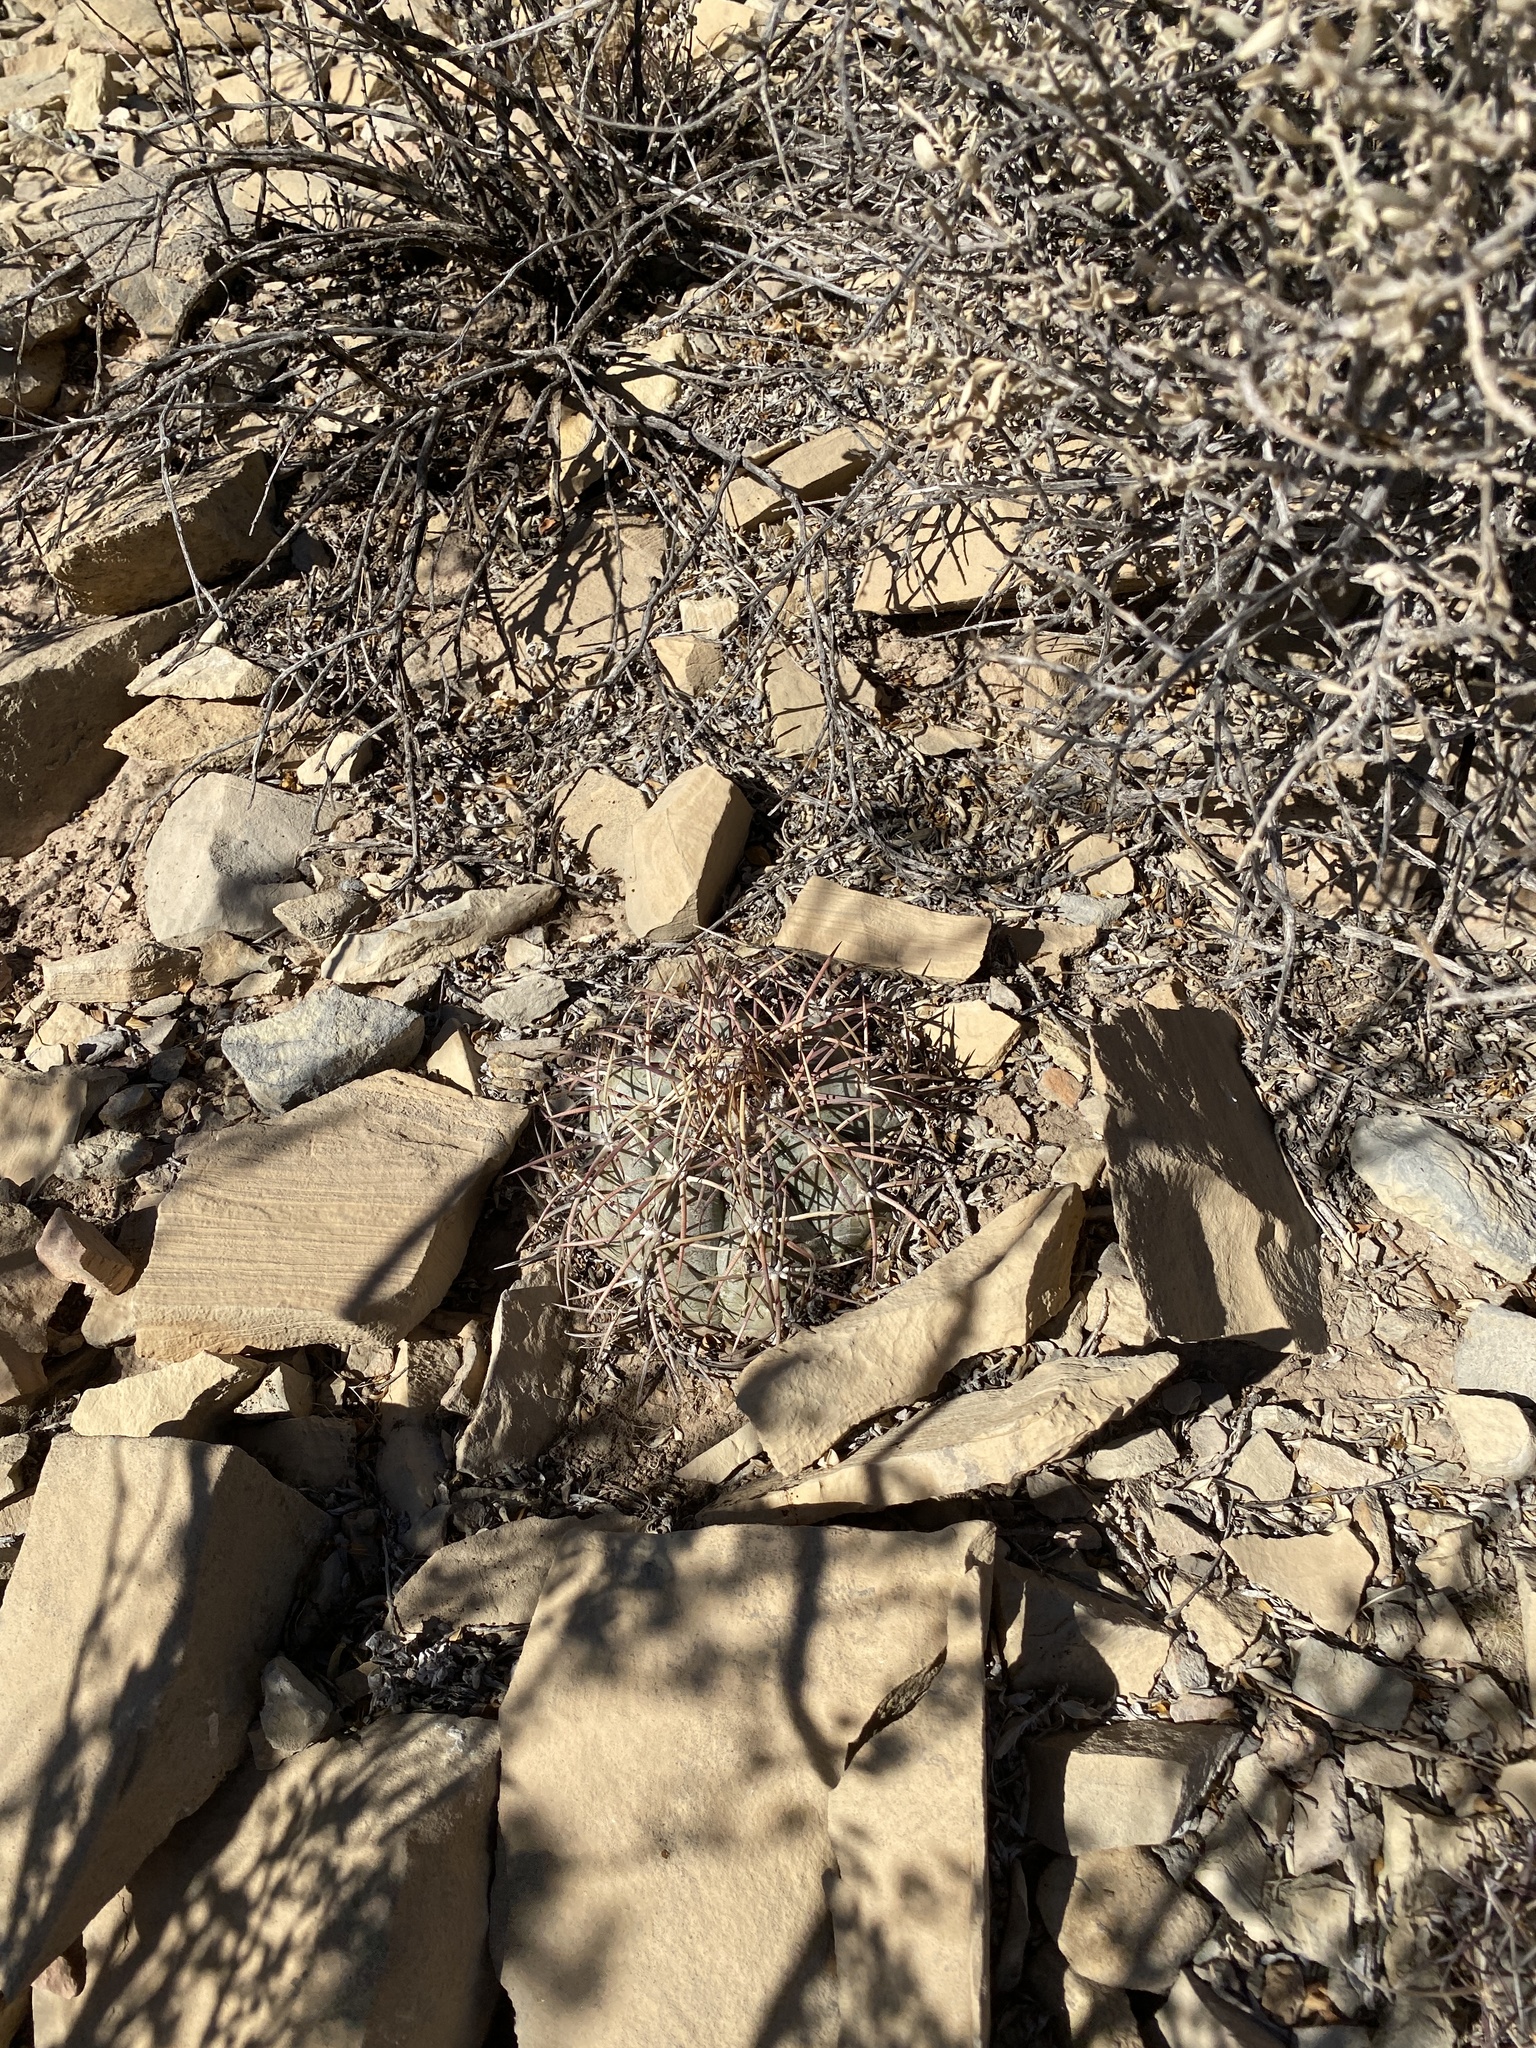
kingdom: Plantae
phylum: Tracheophyta
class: Magnoliopsida
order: Caryophyllales
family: Cactaceae
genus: Echinocactus
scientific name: Echinocactus horizonthalonius
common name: Devilshead
